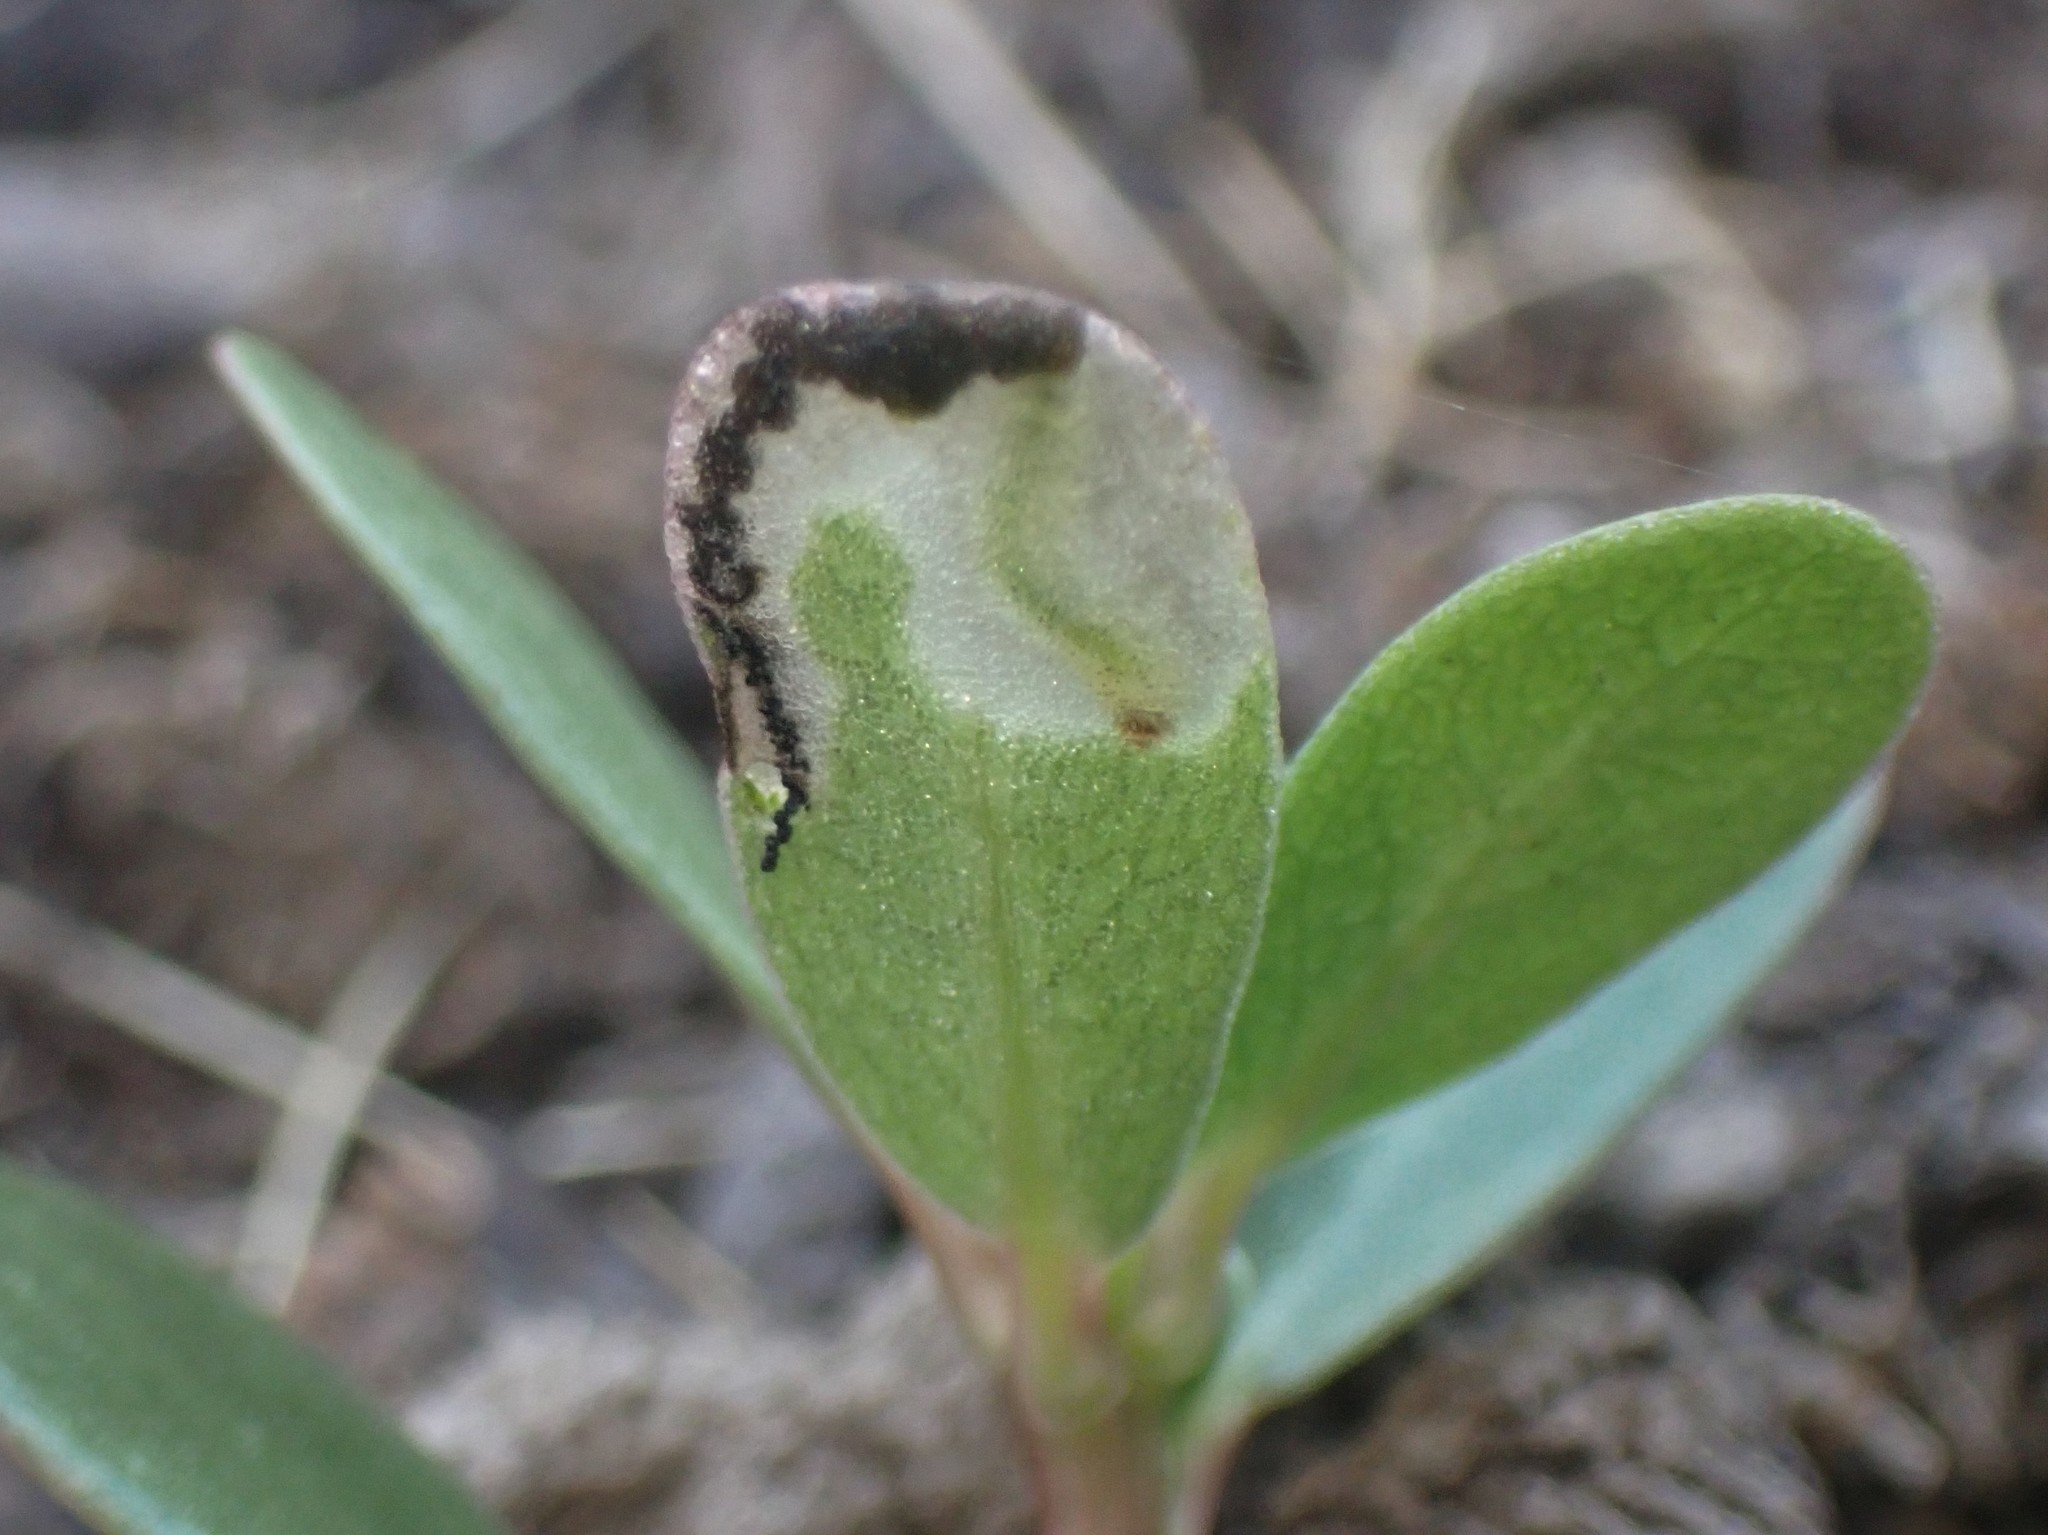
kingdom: Animalia
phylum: Arthropoda
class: Insecta
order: Hymenoptera
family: Argidae
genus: Schizocerella
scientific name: Schizocerella pilicornis
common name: Purslane sawfly
